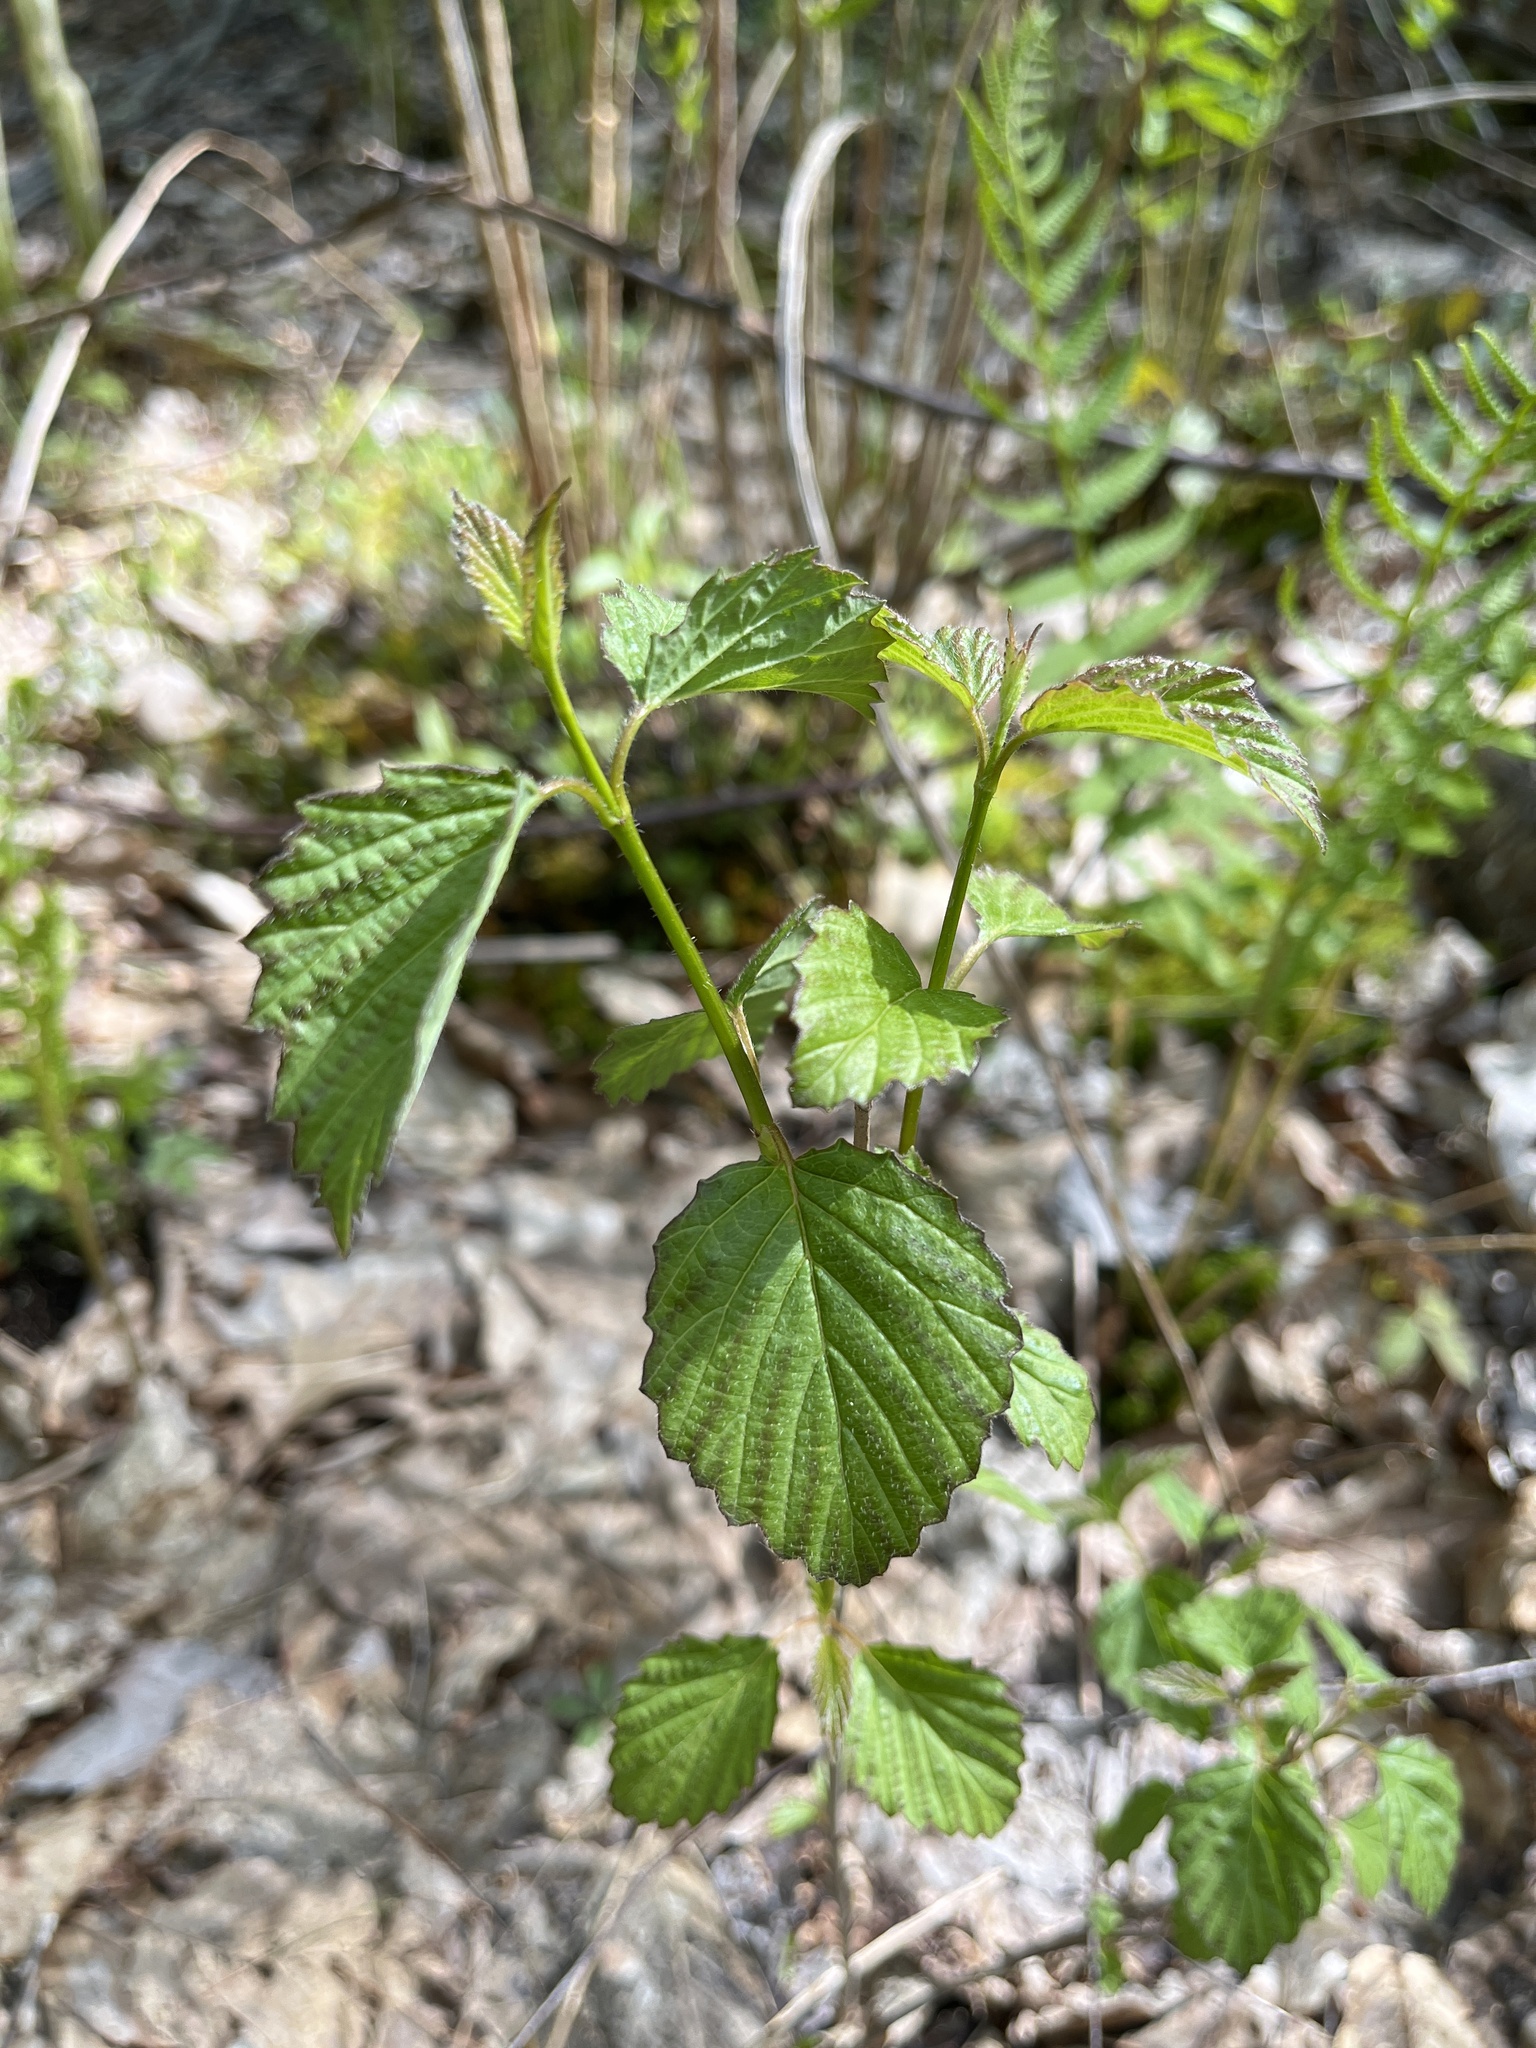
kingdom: Plantae
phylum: Tracheophyta
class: Magnoliopsida
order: Dipsacales
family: Viburnaceae
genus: Viburnum
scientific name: Viburnum dentatum
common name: Arrow-wood
